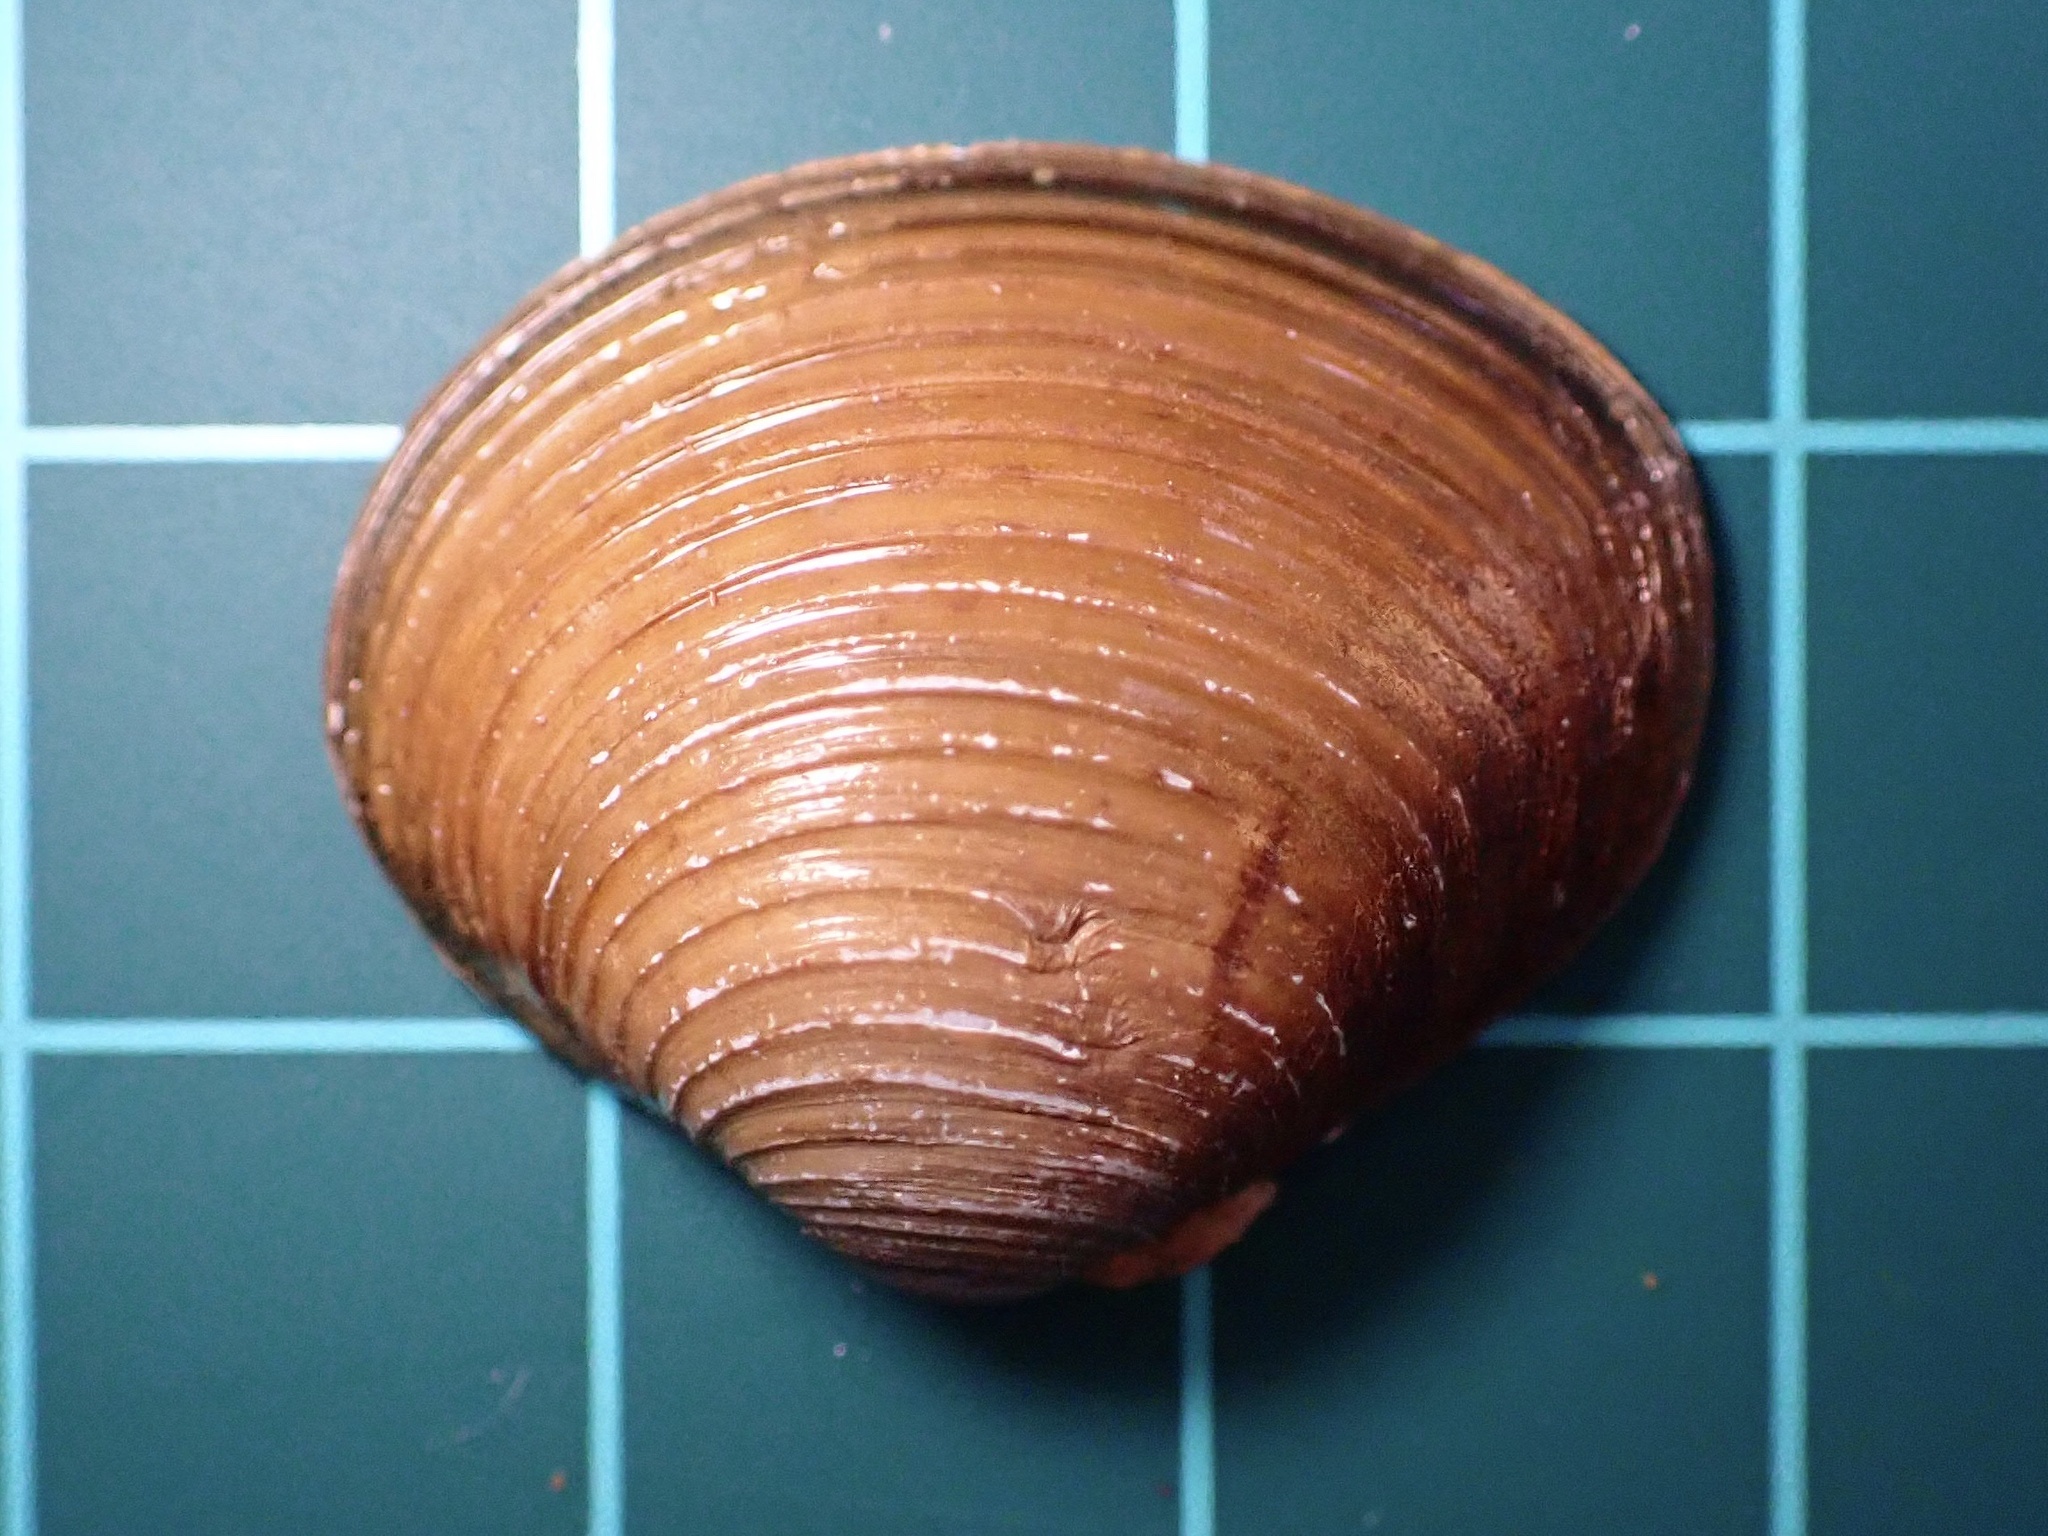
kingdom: Animalia
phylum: Mollusca
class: Bivalvia
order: Venerida
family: Cyrenidae
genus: Corbicula
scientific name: Corbicula fluminea
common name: Asian clam
